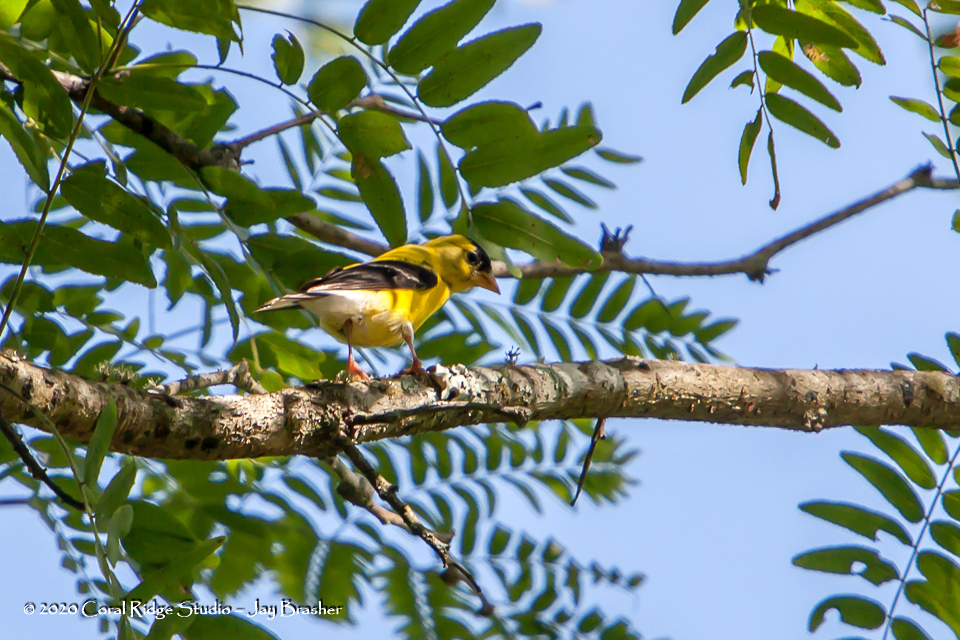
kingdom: Animalia
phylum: Chordata
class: Aves
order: Passeriformes
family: Fringillidae
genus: Spinus
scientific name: Spinus tristis
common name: American goldfinch
